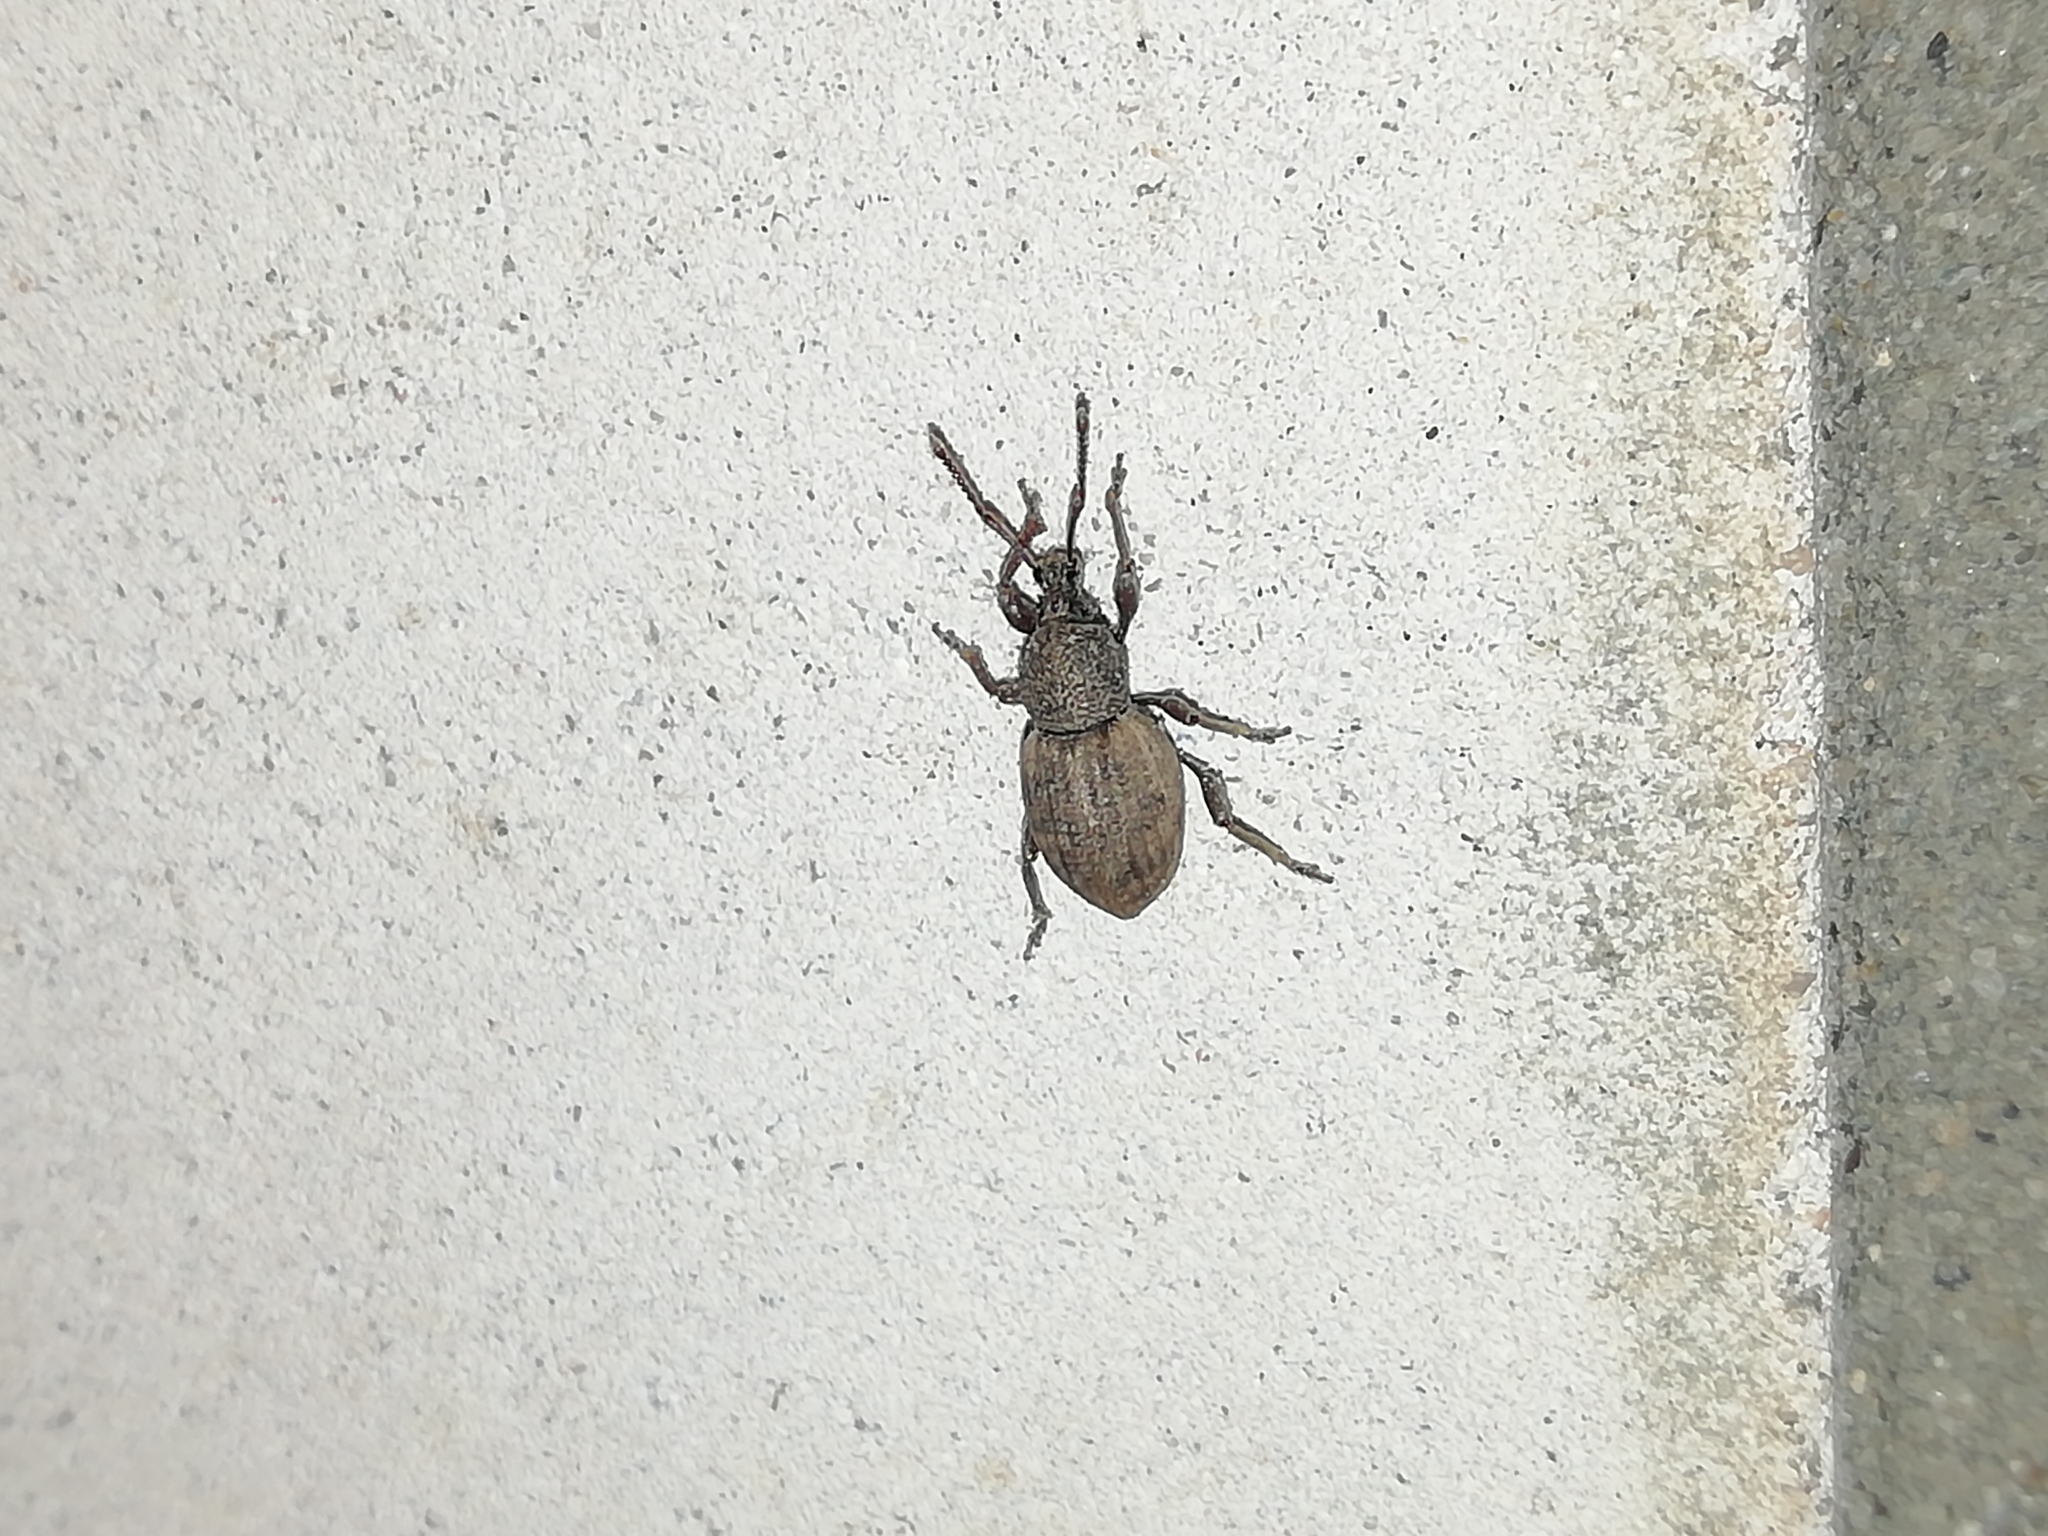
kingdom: Animalia
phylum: Arthropoda
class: Insecta
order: Coleoptera
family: Curculionidae
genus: Otiorhynchus
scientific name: Otiorhynchus raucus
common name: Weevil
